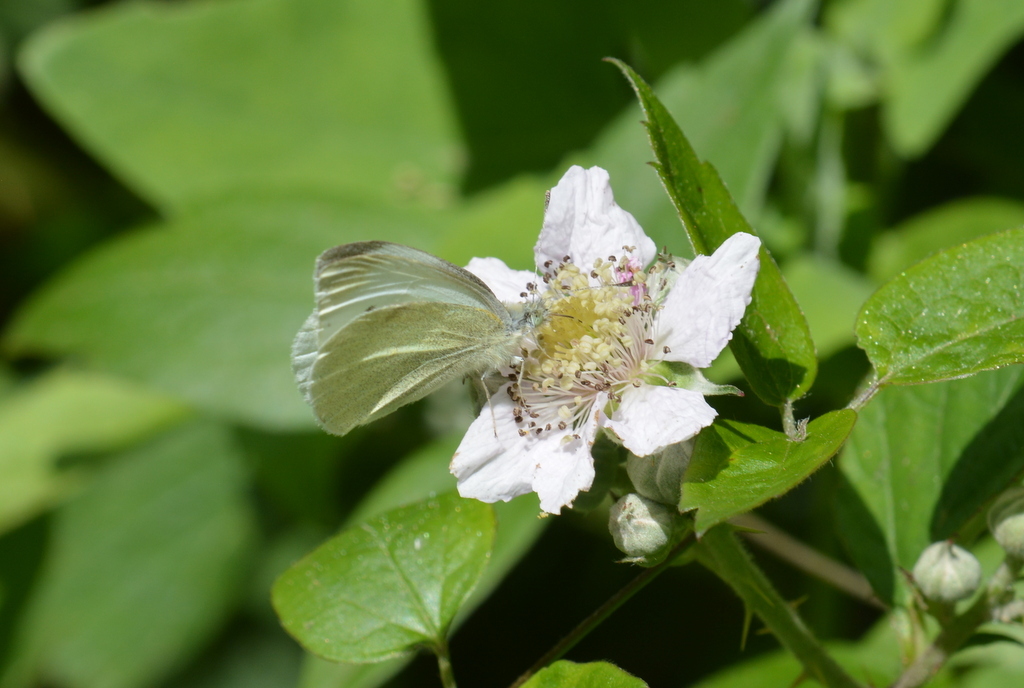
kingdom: Animalia
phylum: Arthropoda
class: Insecta
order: Lepidoptera
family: Pieridae
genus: Pieris
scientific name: Pieris rapae
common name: Small white
